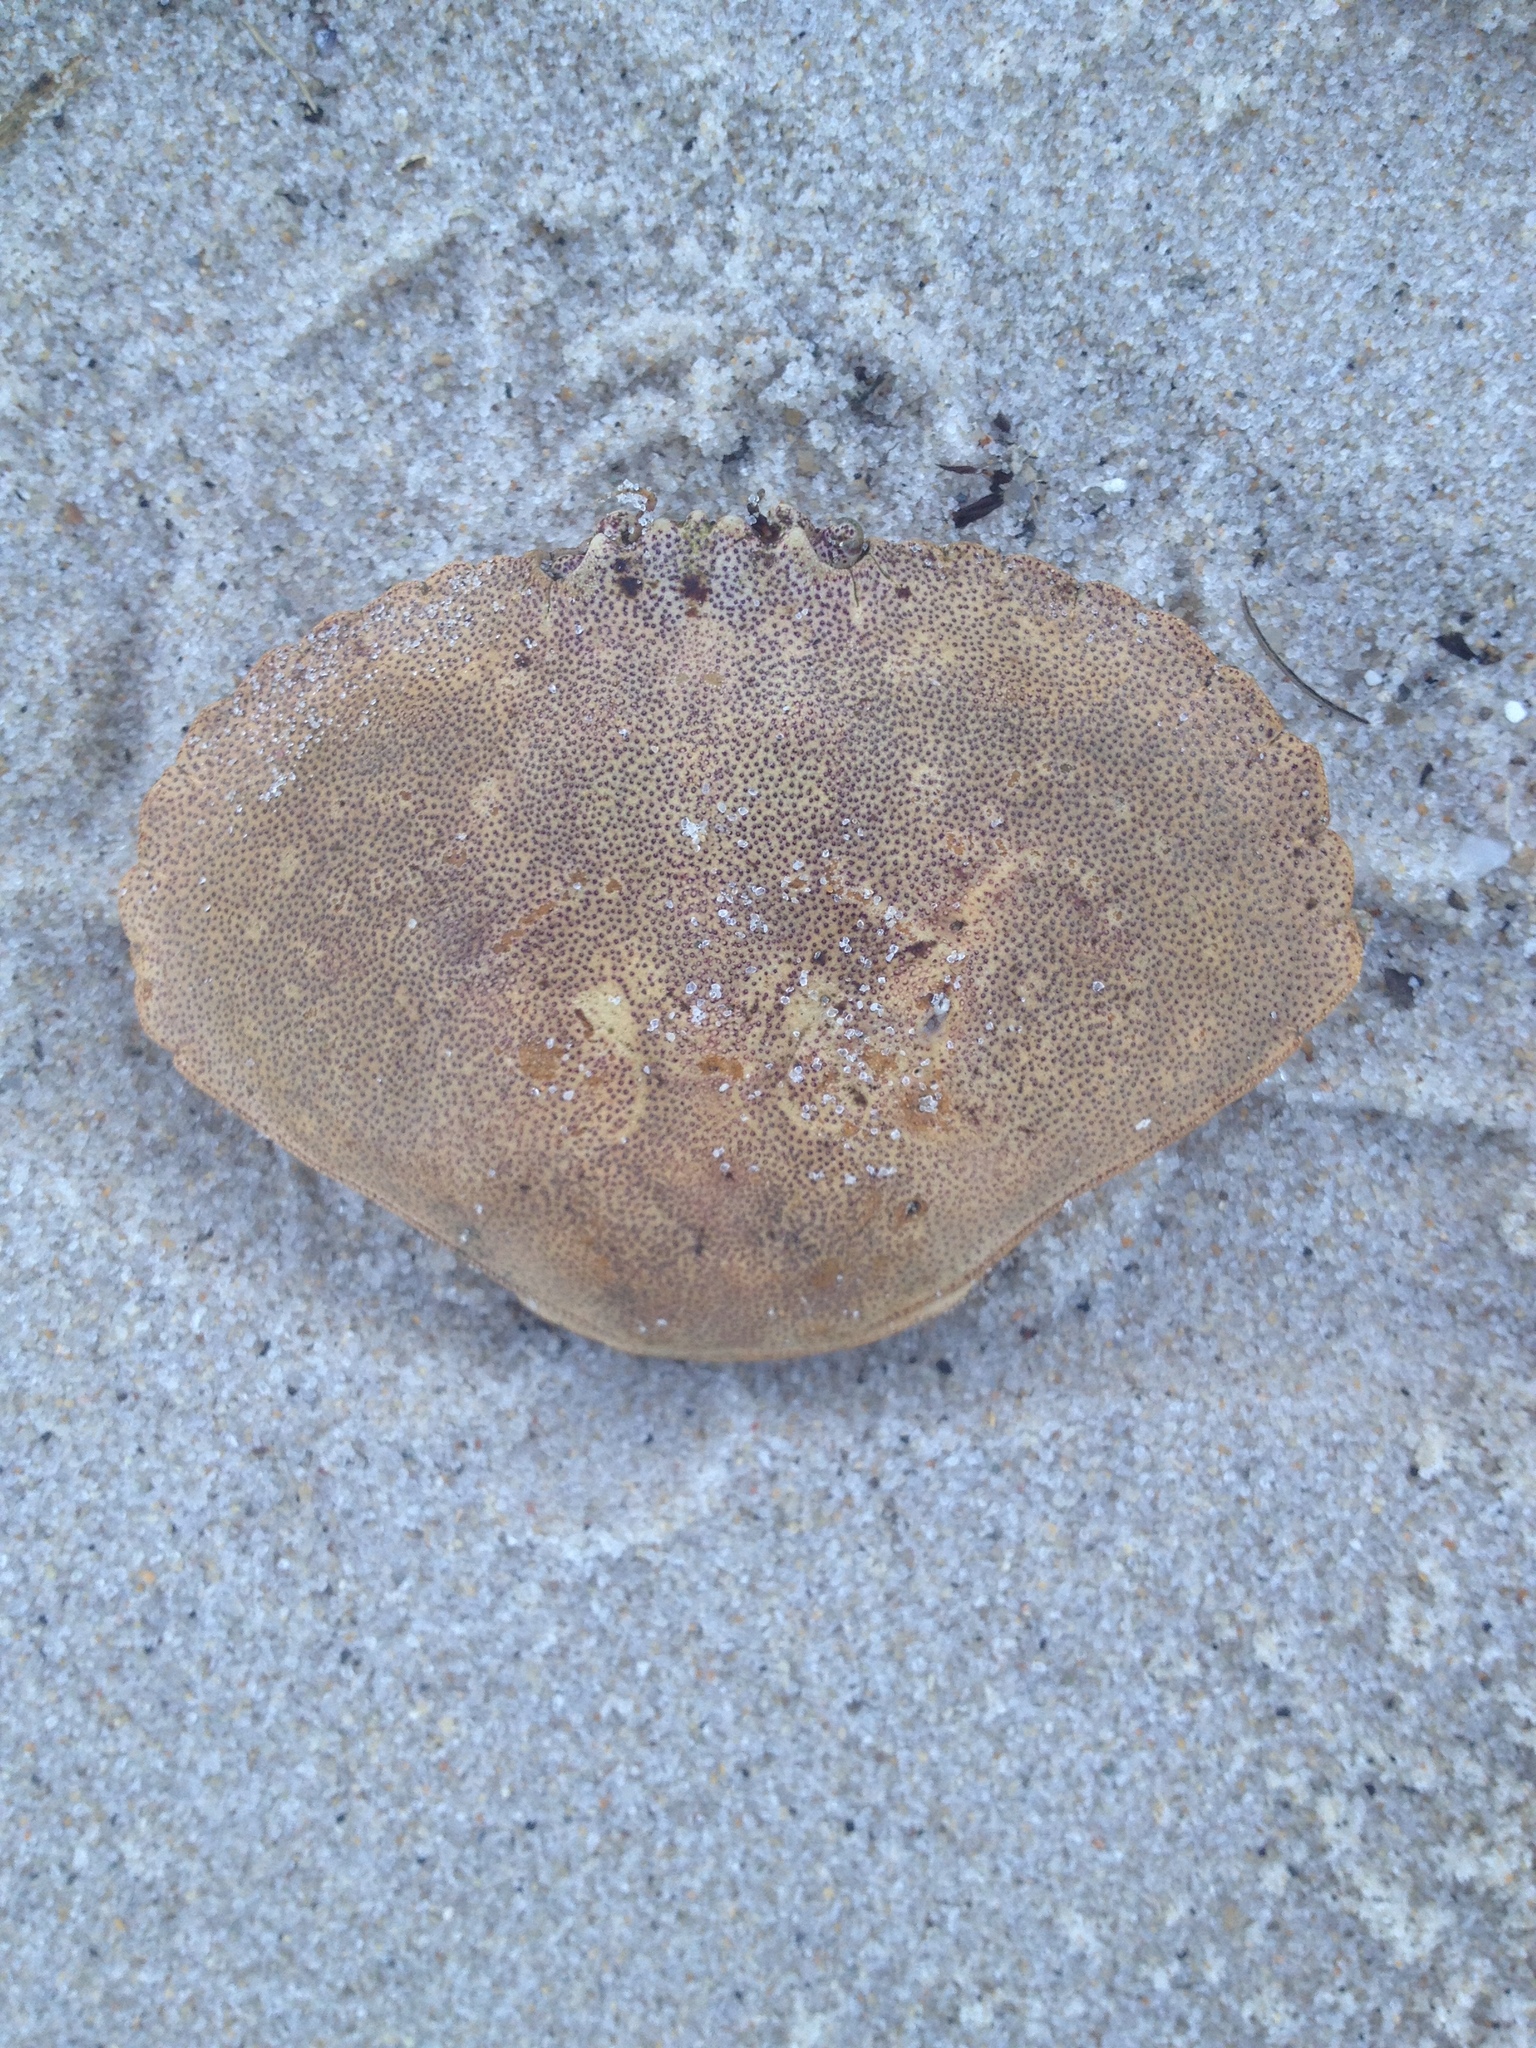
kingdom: Animalia
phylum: Arthropoda
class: Malacostraca
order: Decapoda
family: Cancridae
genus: Cancer
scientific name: Cancer irroratus
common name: Atlantic rock crab
